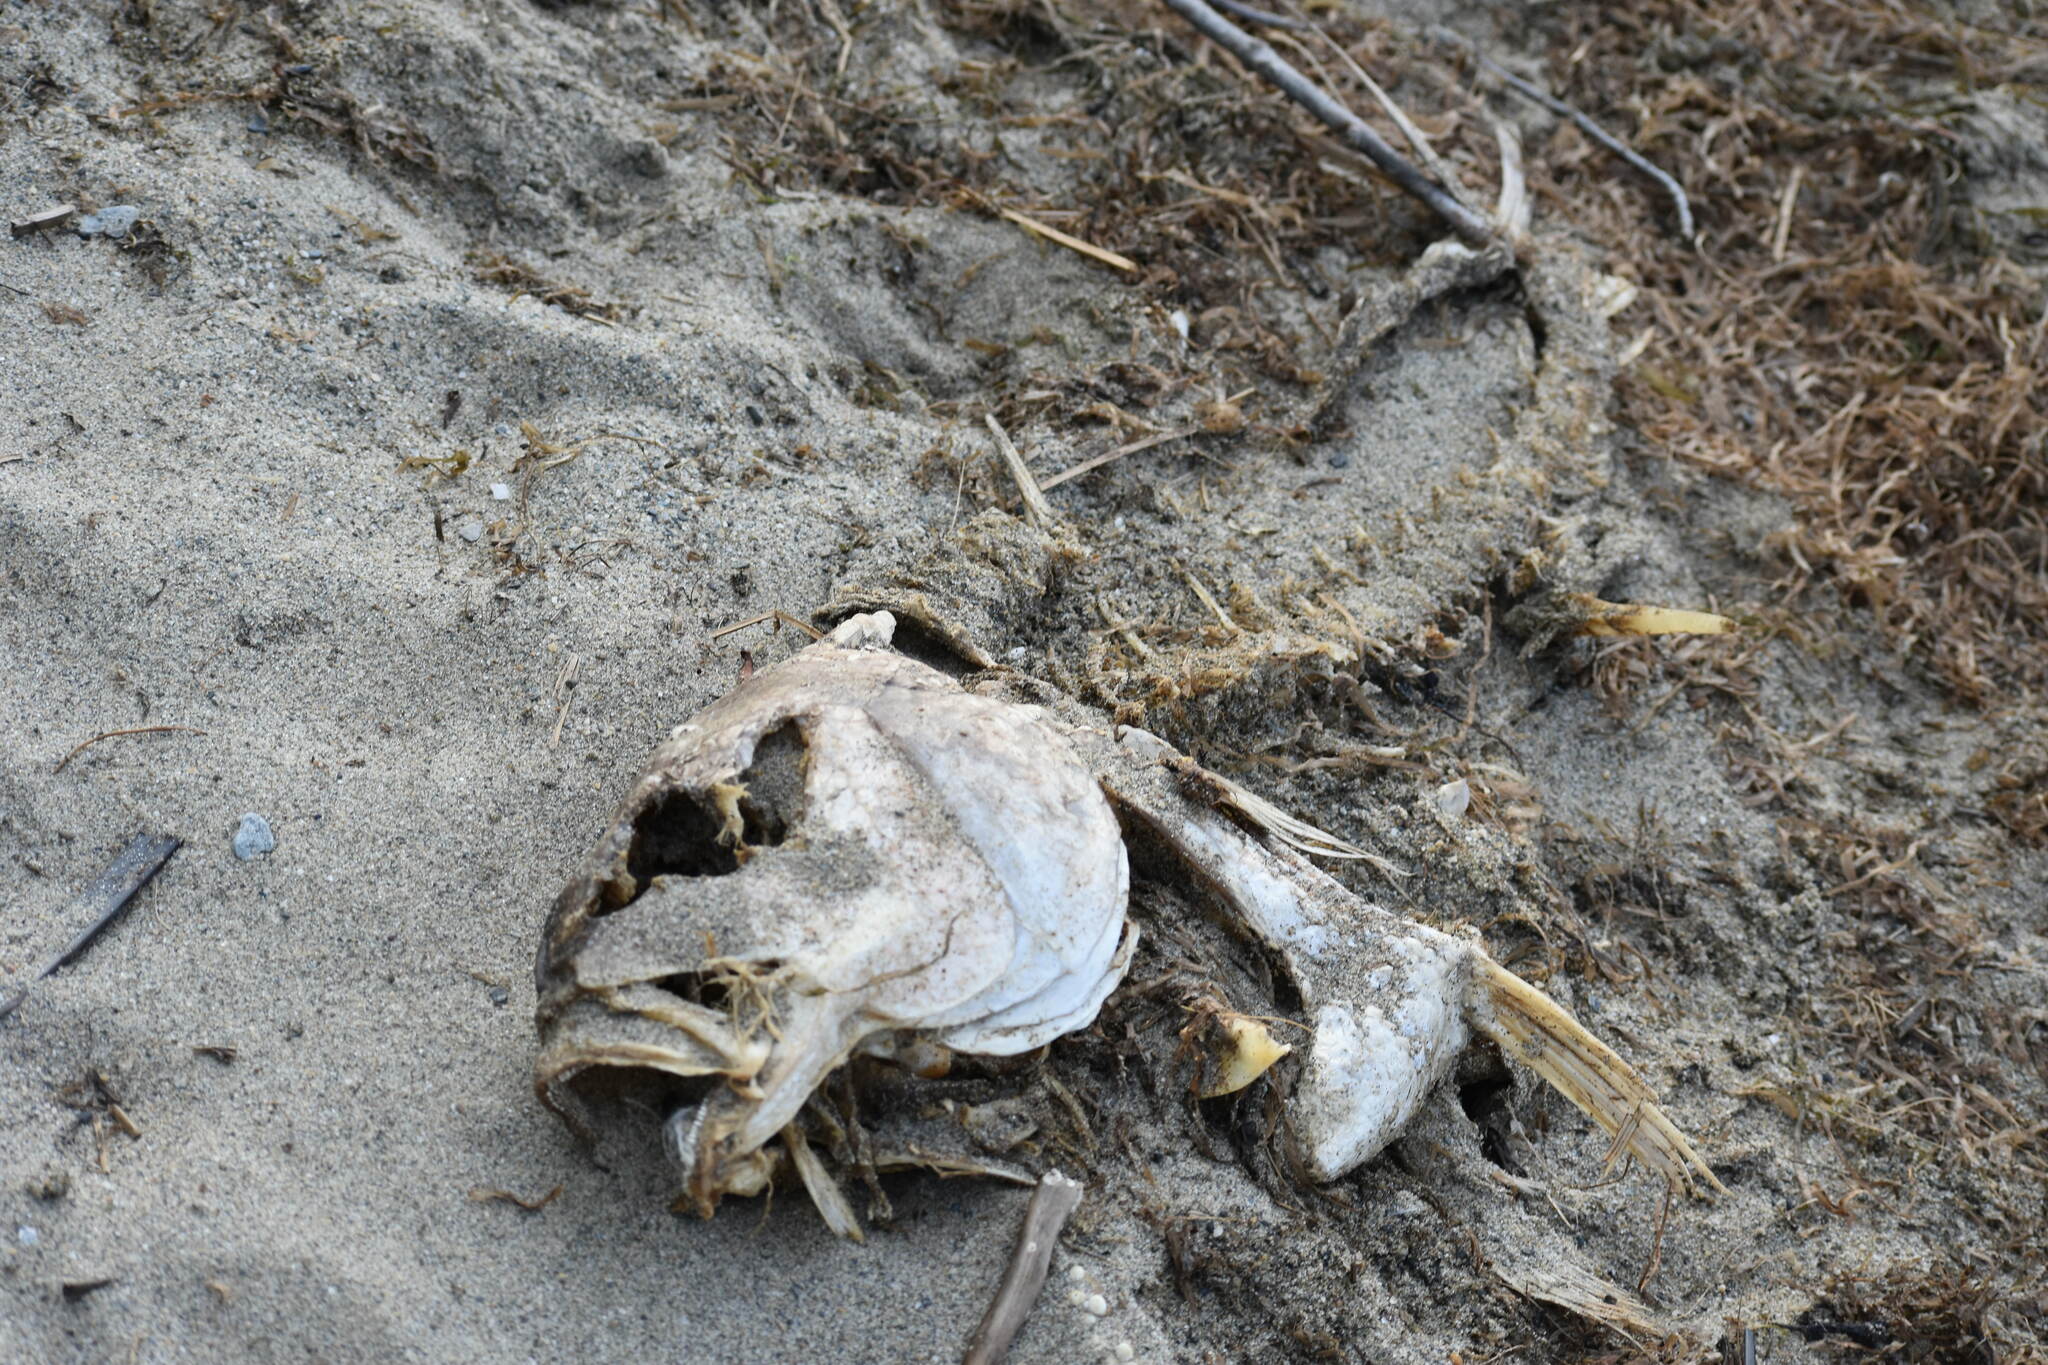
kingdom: Animalia
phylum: Chordata
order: Perciformes
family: Sciaenidae
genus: Aplodinotus
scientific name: Aplodinotus grunniens
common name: Freshwater drum
